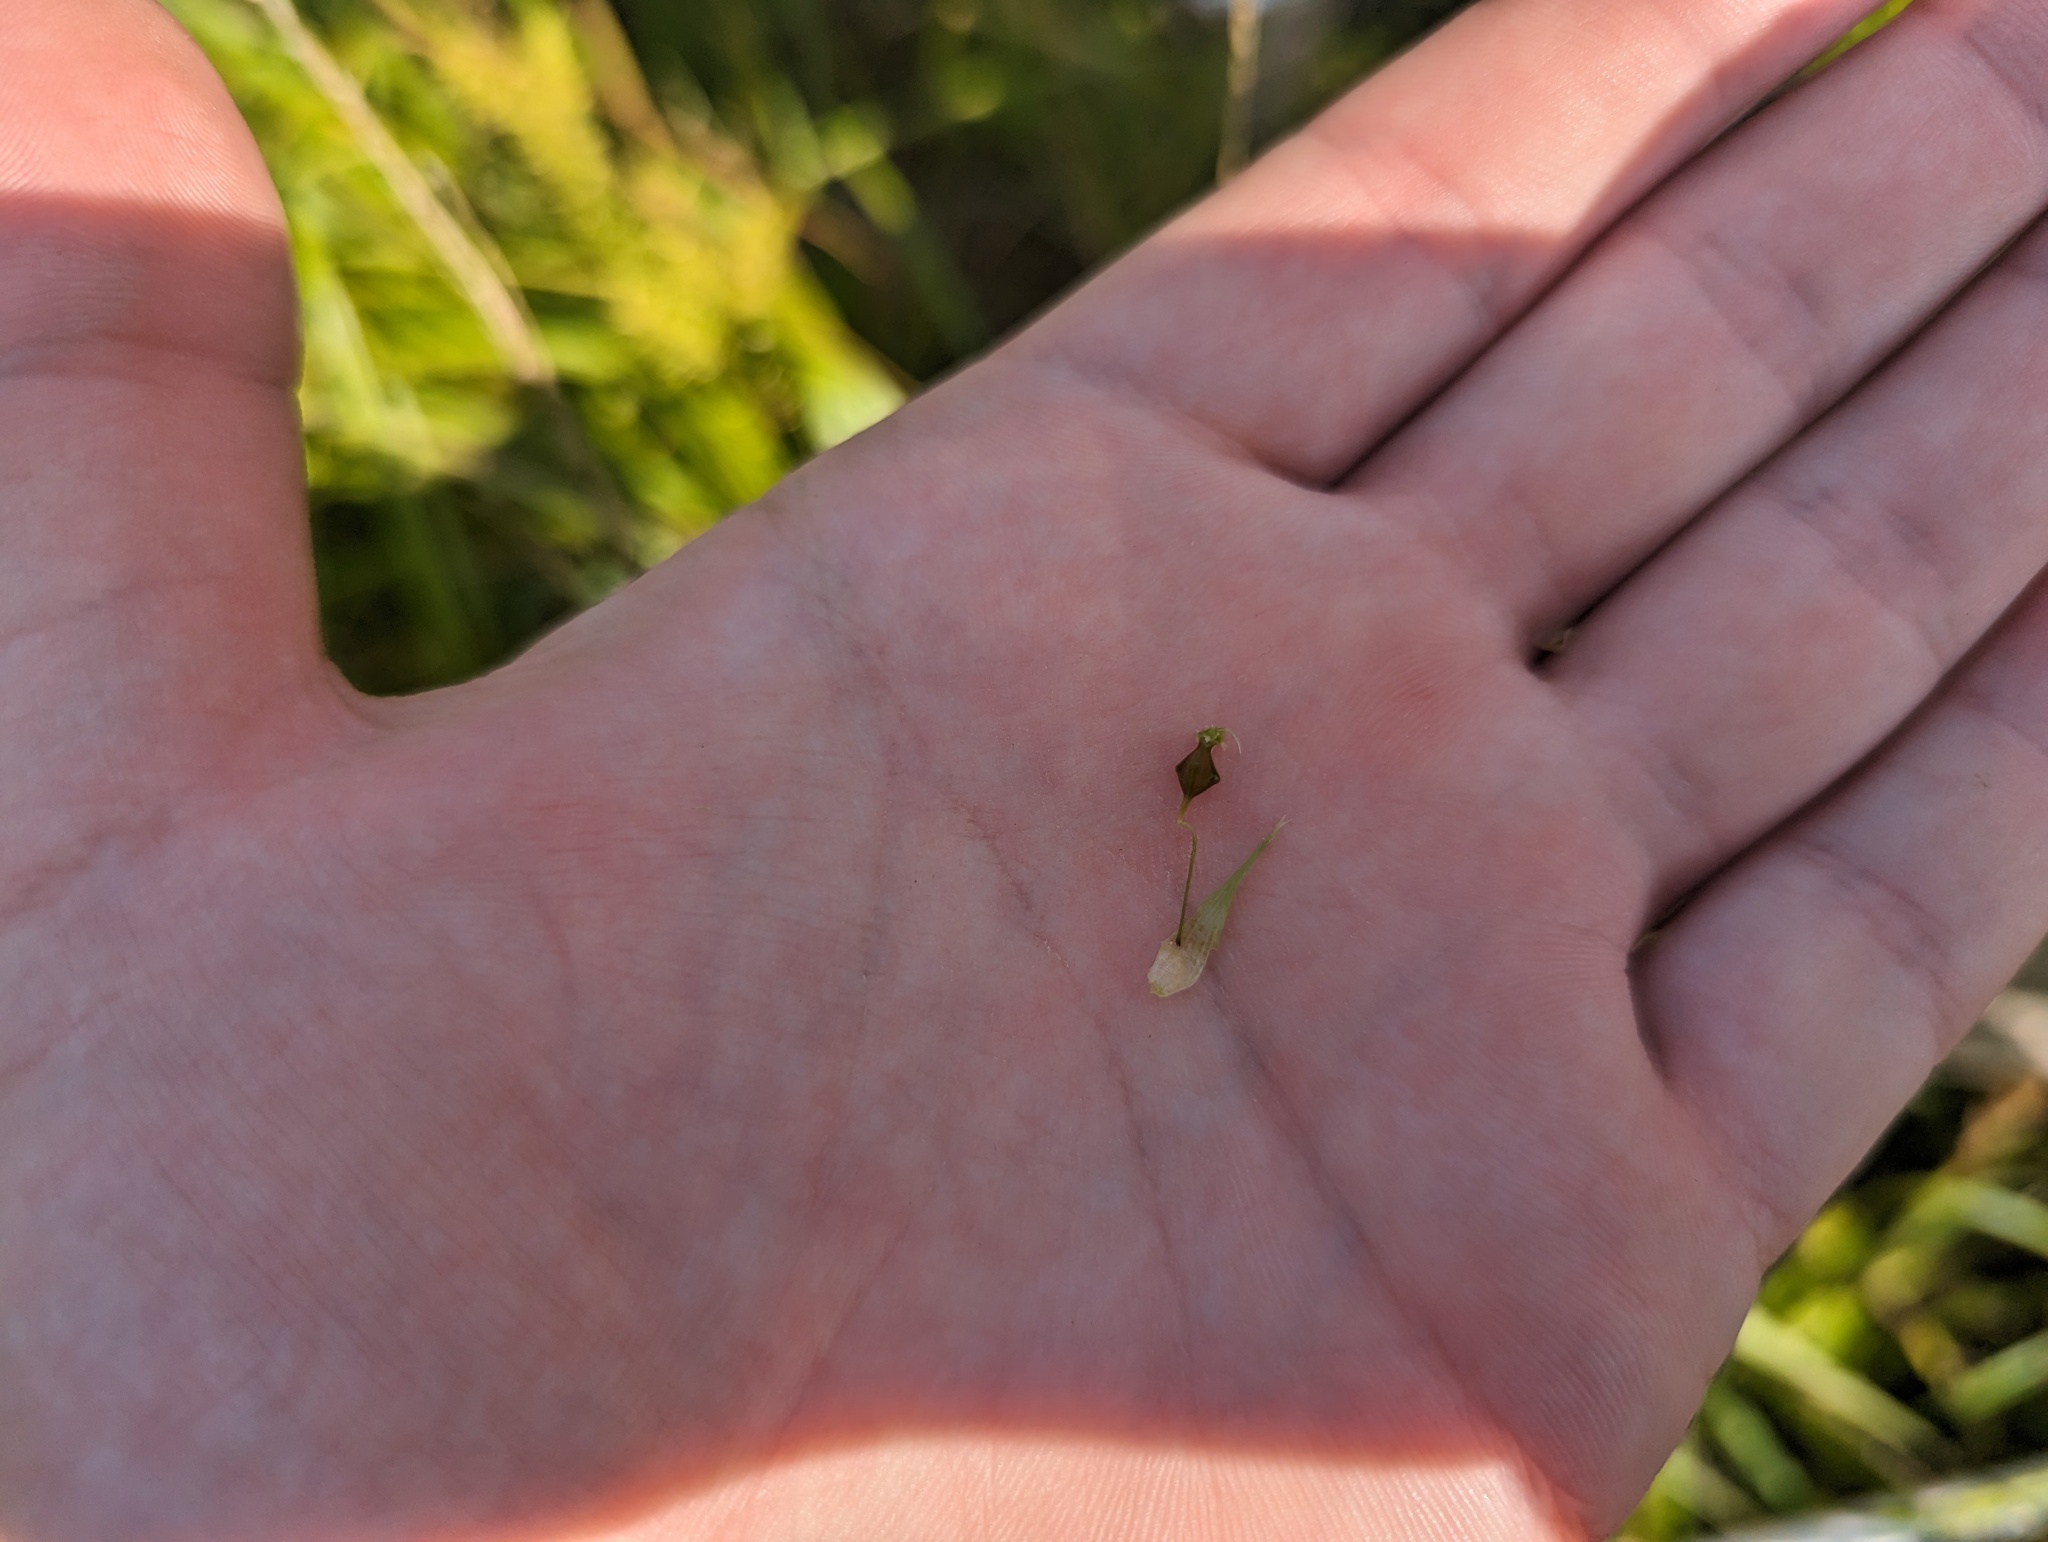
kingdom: Plantae
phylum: Tracheophyta
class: Liliopsida
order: Poales
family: Cyperaceae
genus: Carex
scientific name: Carex lupuliformis
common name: False hop sedge
